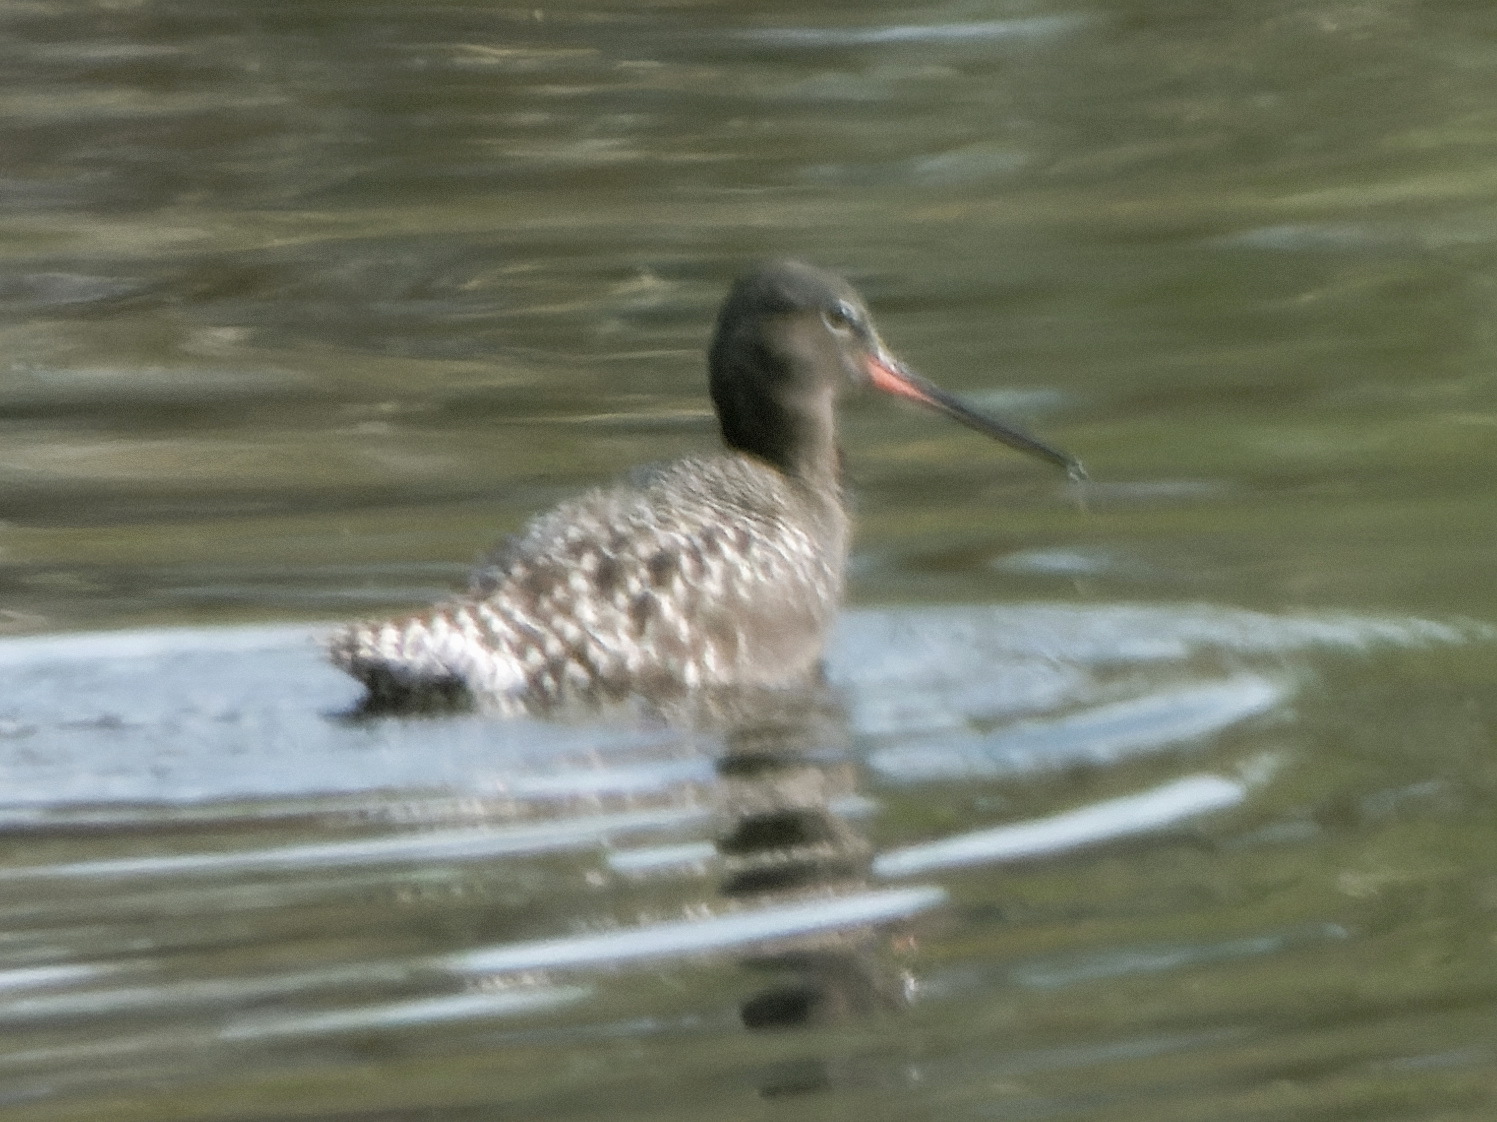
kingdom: Animalia
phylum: Chordata
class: Aves
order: Charadriiformes
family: Scolopacidae
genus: Tringa
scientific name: Tringa erythropus
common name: Spotted redshank
